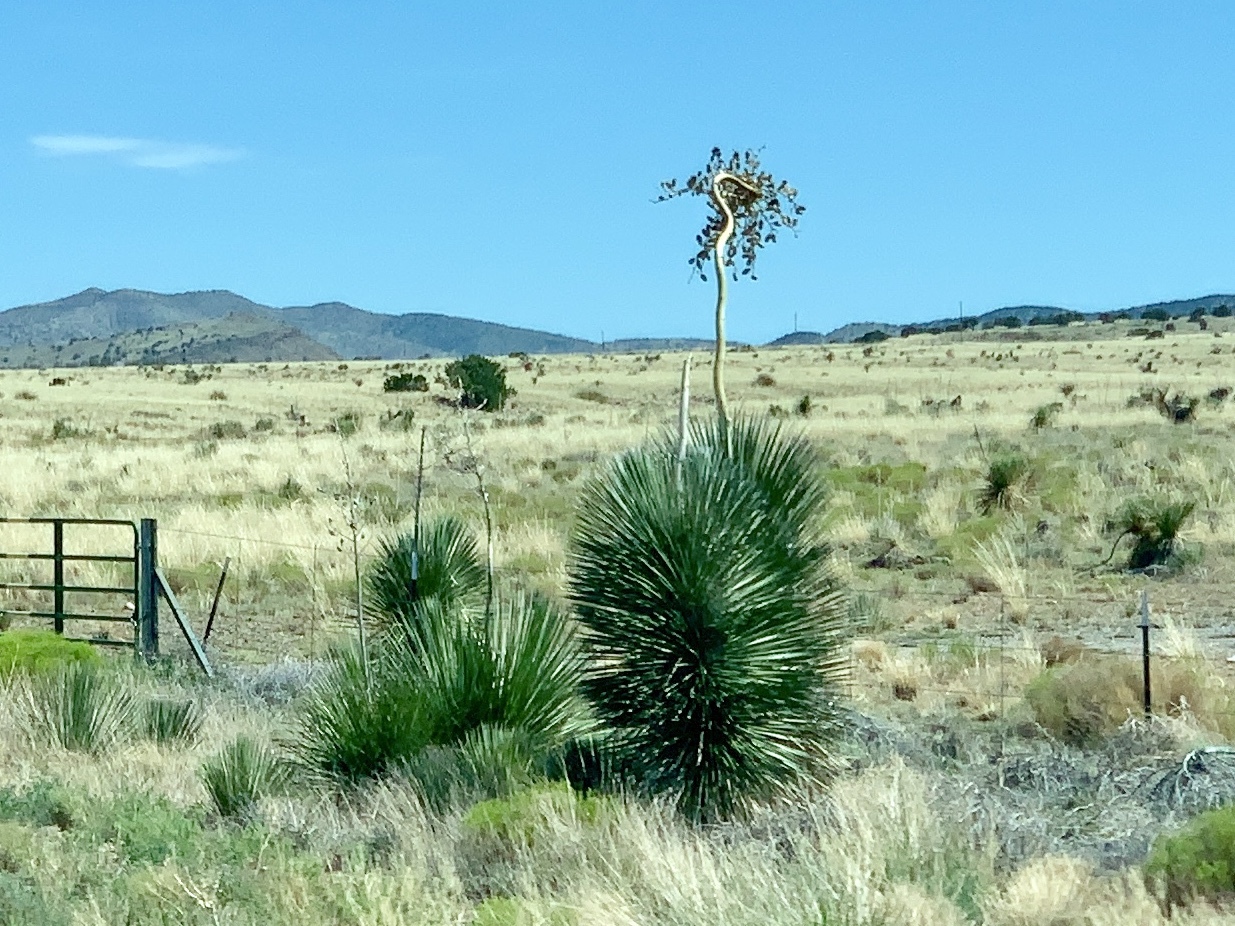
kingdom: Plantae
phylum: Tracheophyta
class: Liliopsida
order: Asparagales
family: Asparagaceae
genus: Yucca
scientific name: Yucca elata
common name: Palmella
